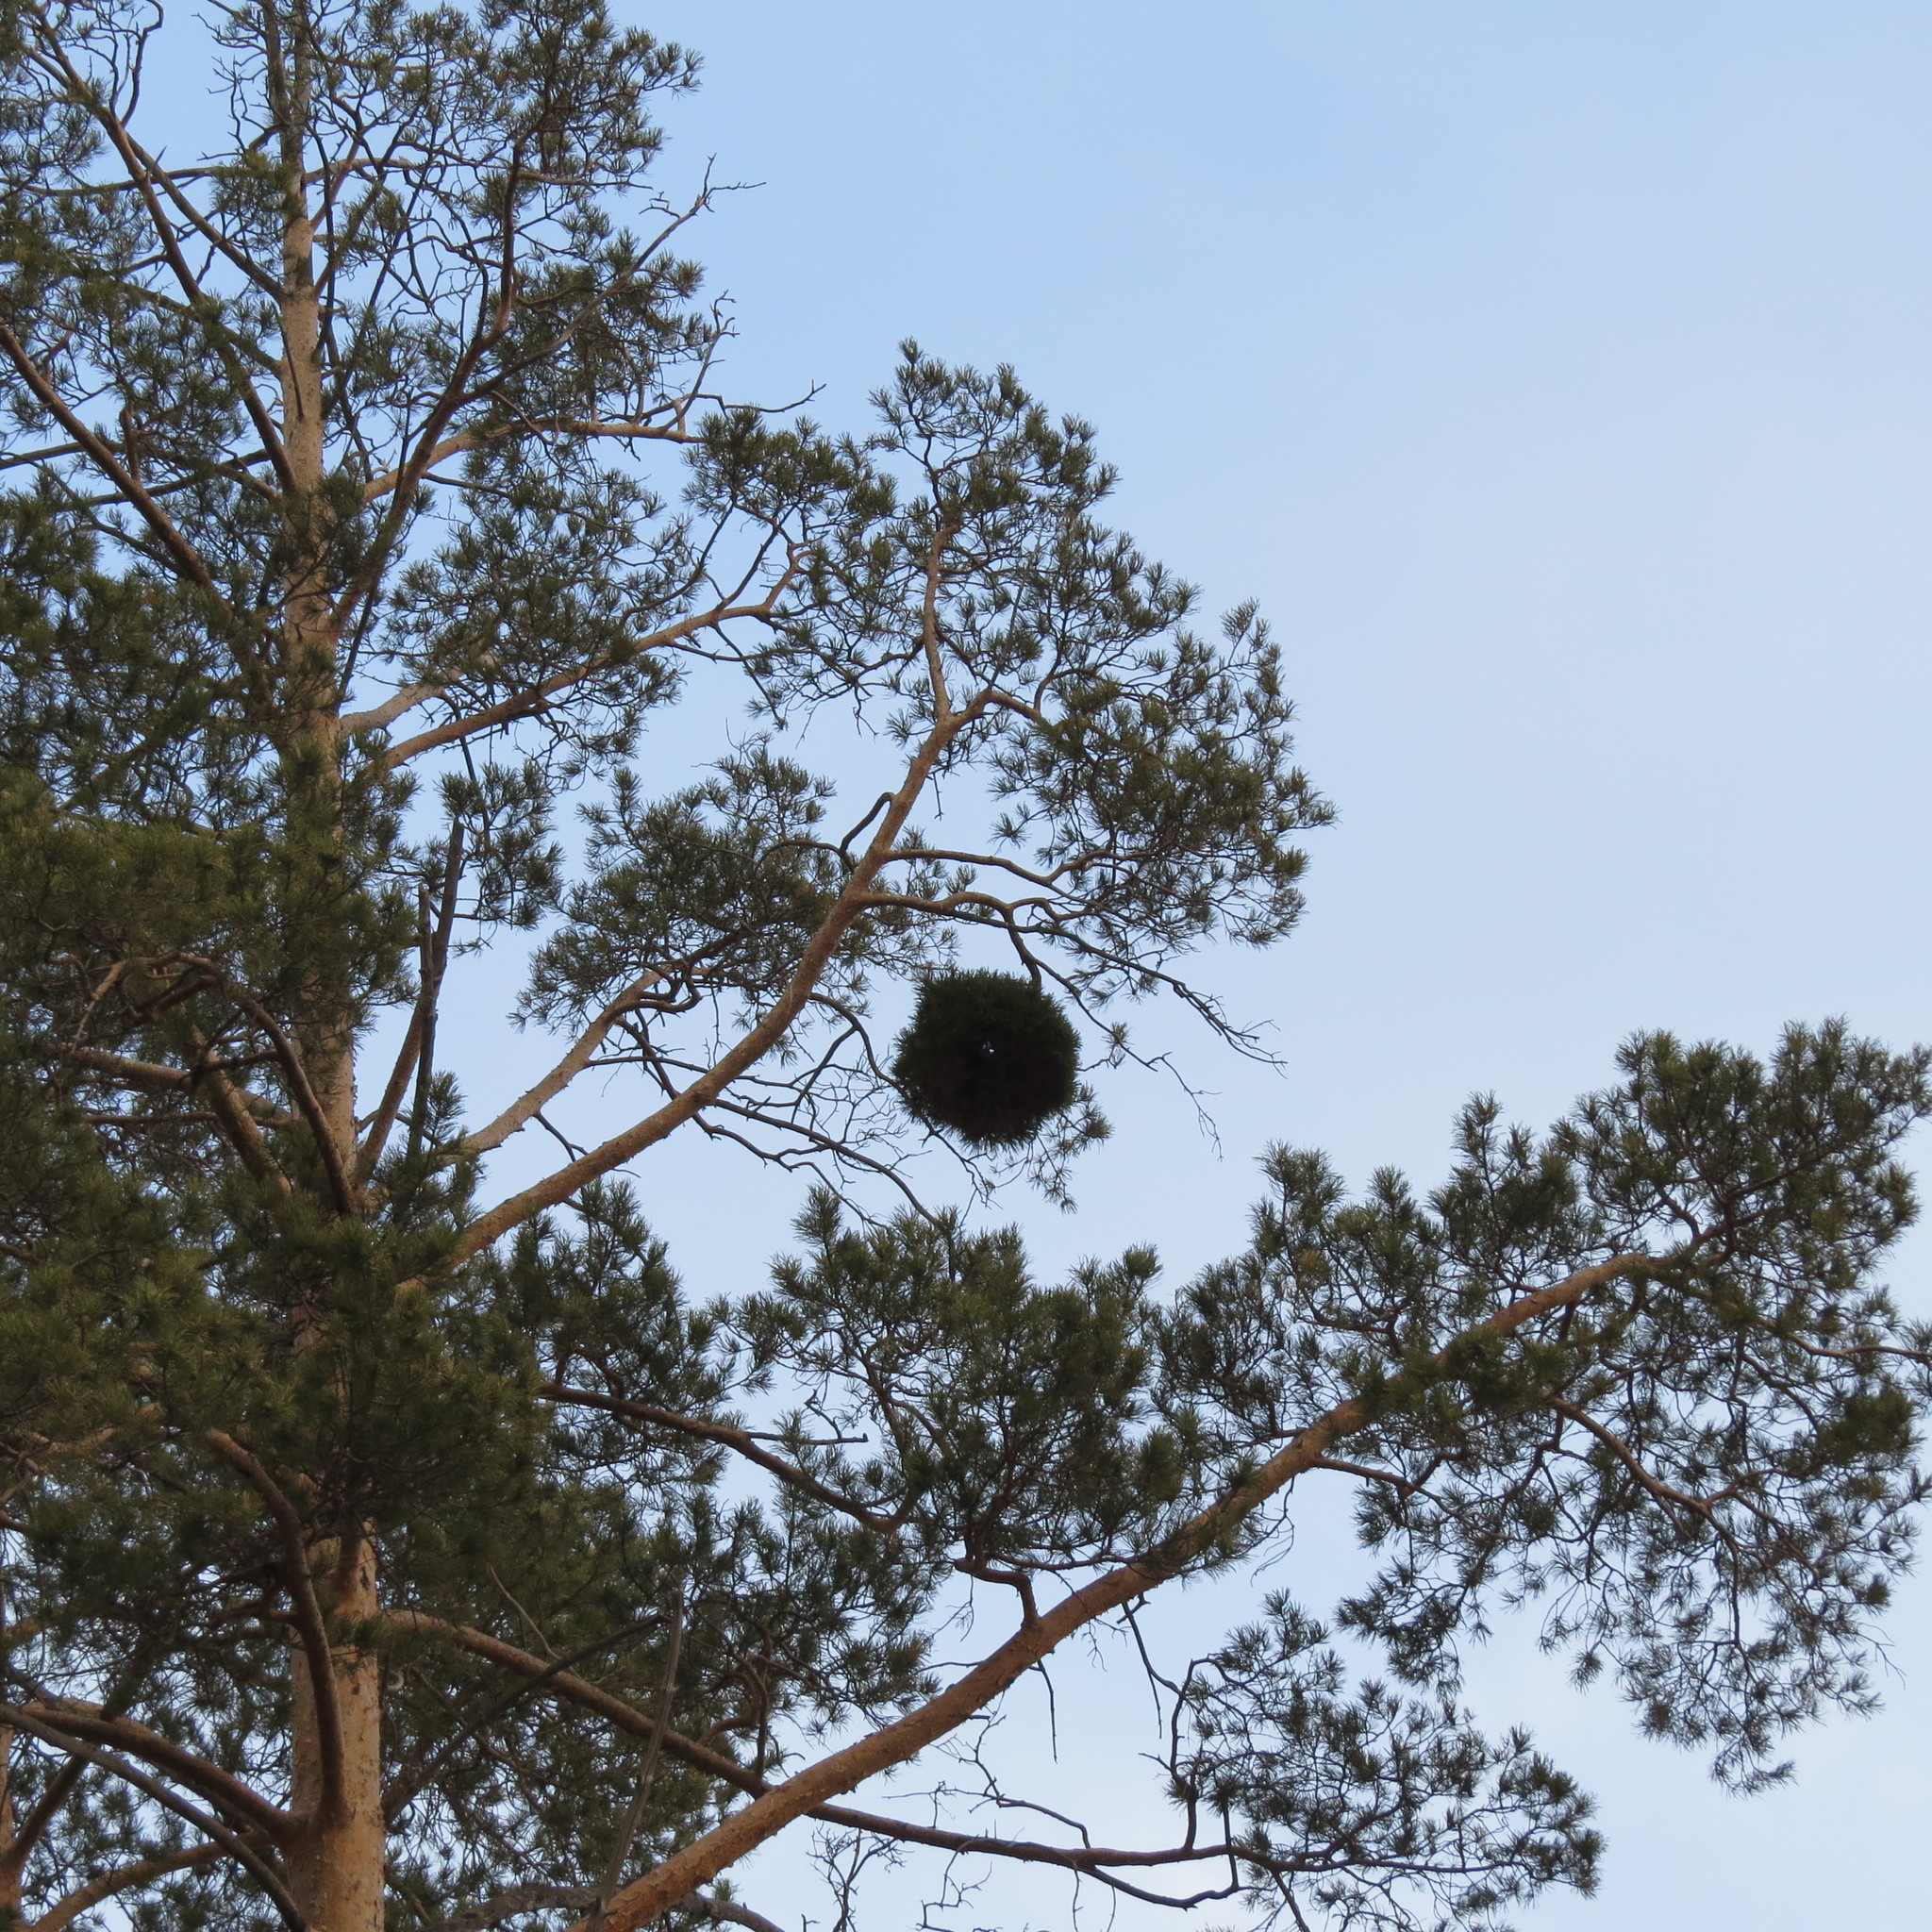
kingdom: Plantae
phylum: Tracheophyta
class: Pinopsida
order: Pinales
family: Pinaceae
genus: Pinus
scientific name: Pinus sylvestris
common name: Scots pine
